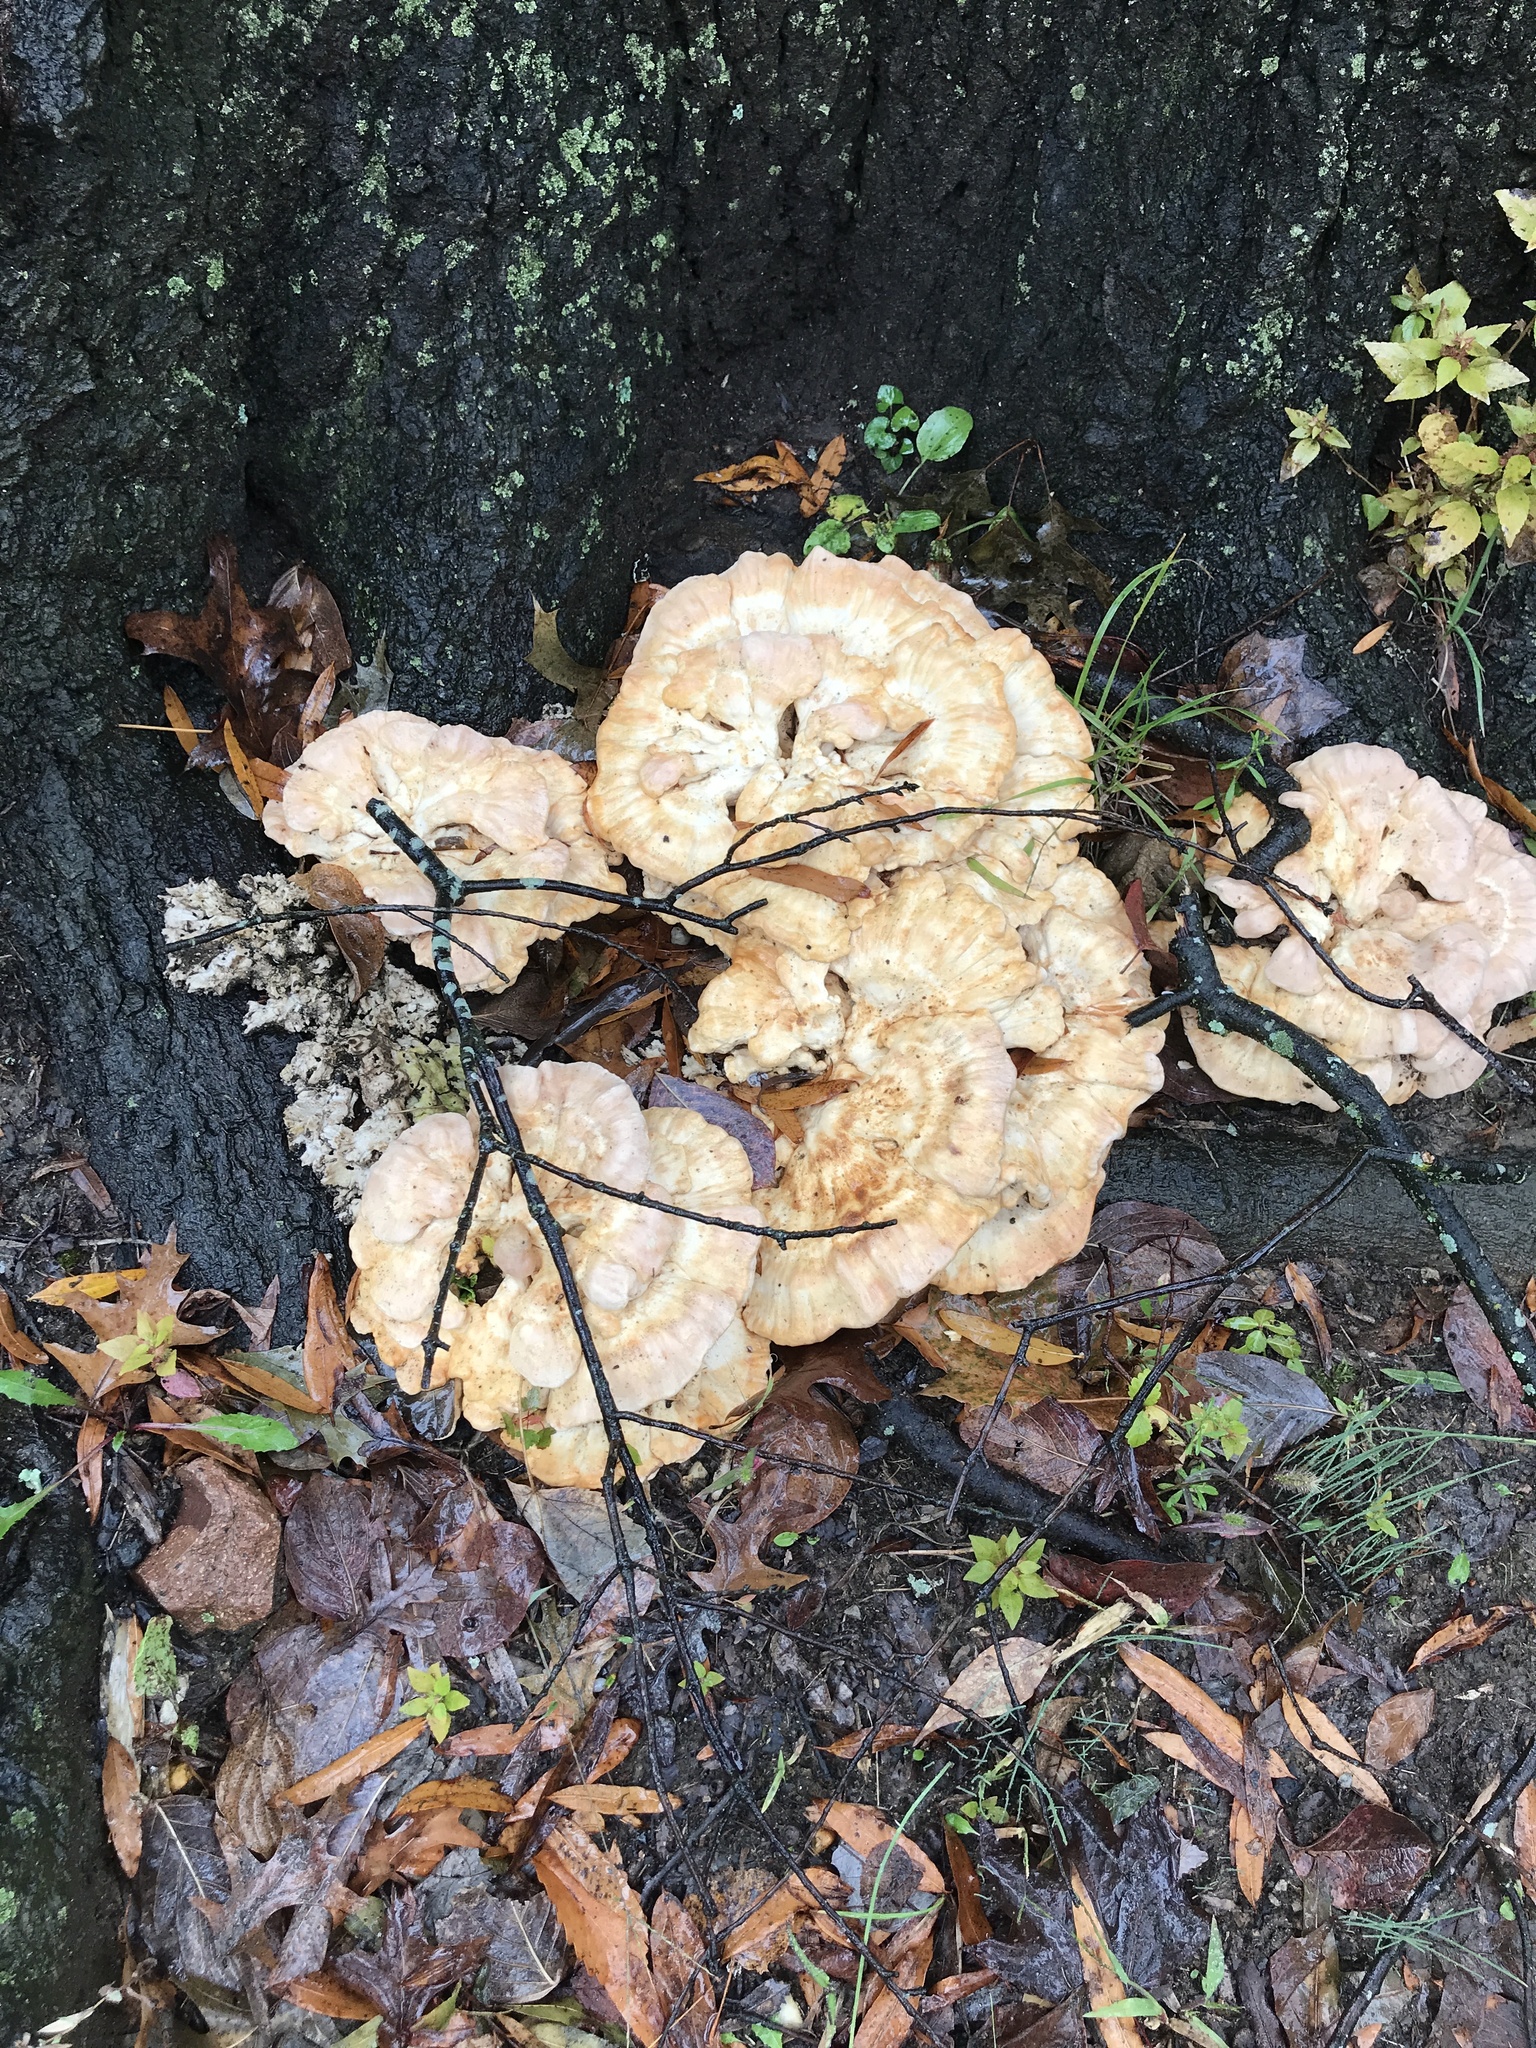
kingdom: Fungi
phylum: Basidiomycota
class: Agaricomycetes
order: Polyporales
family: Laetiporaceae
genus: Laetiporus
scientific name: Laetiporus sulphureus
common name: Chicken of the woods
